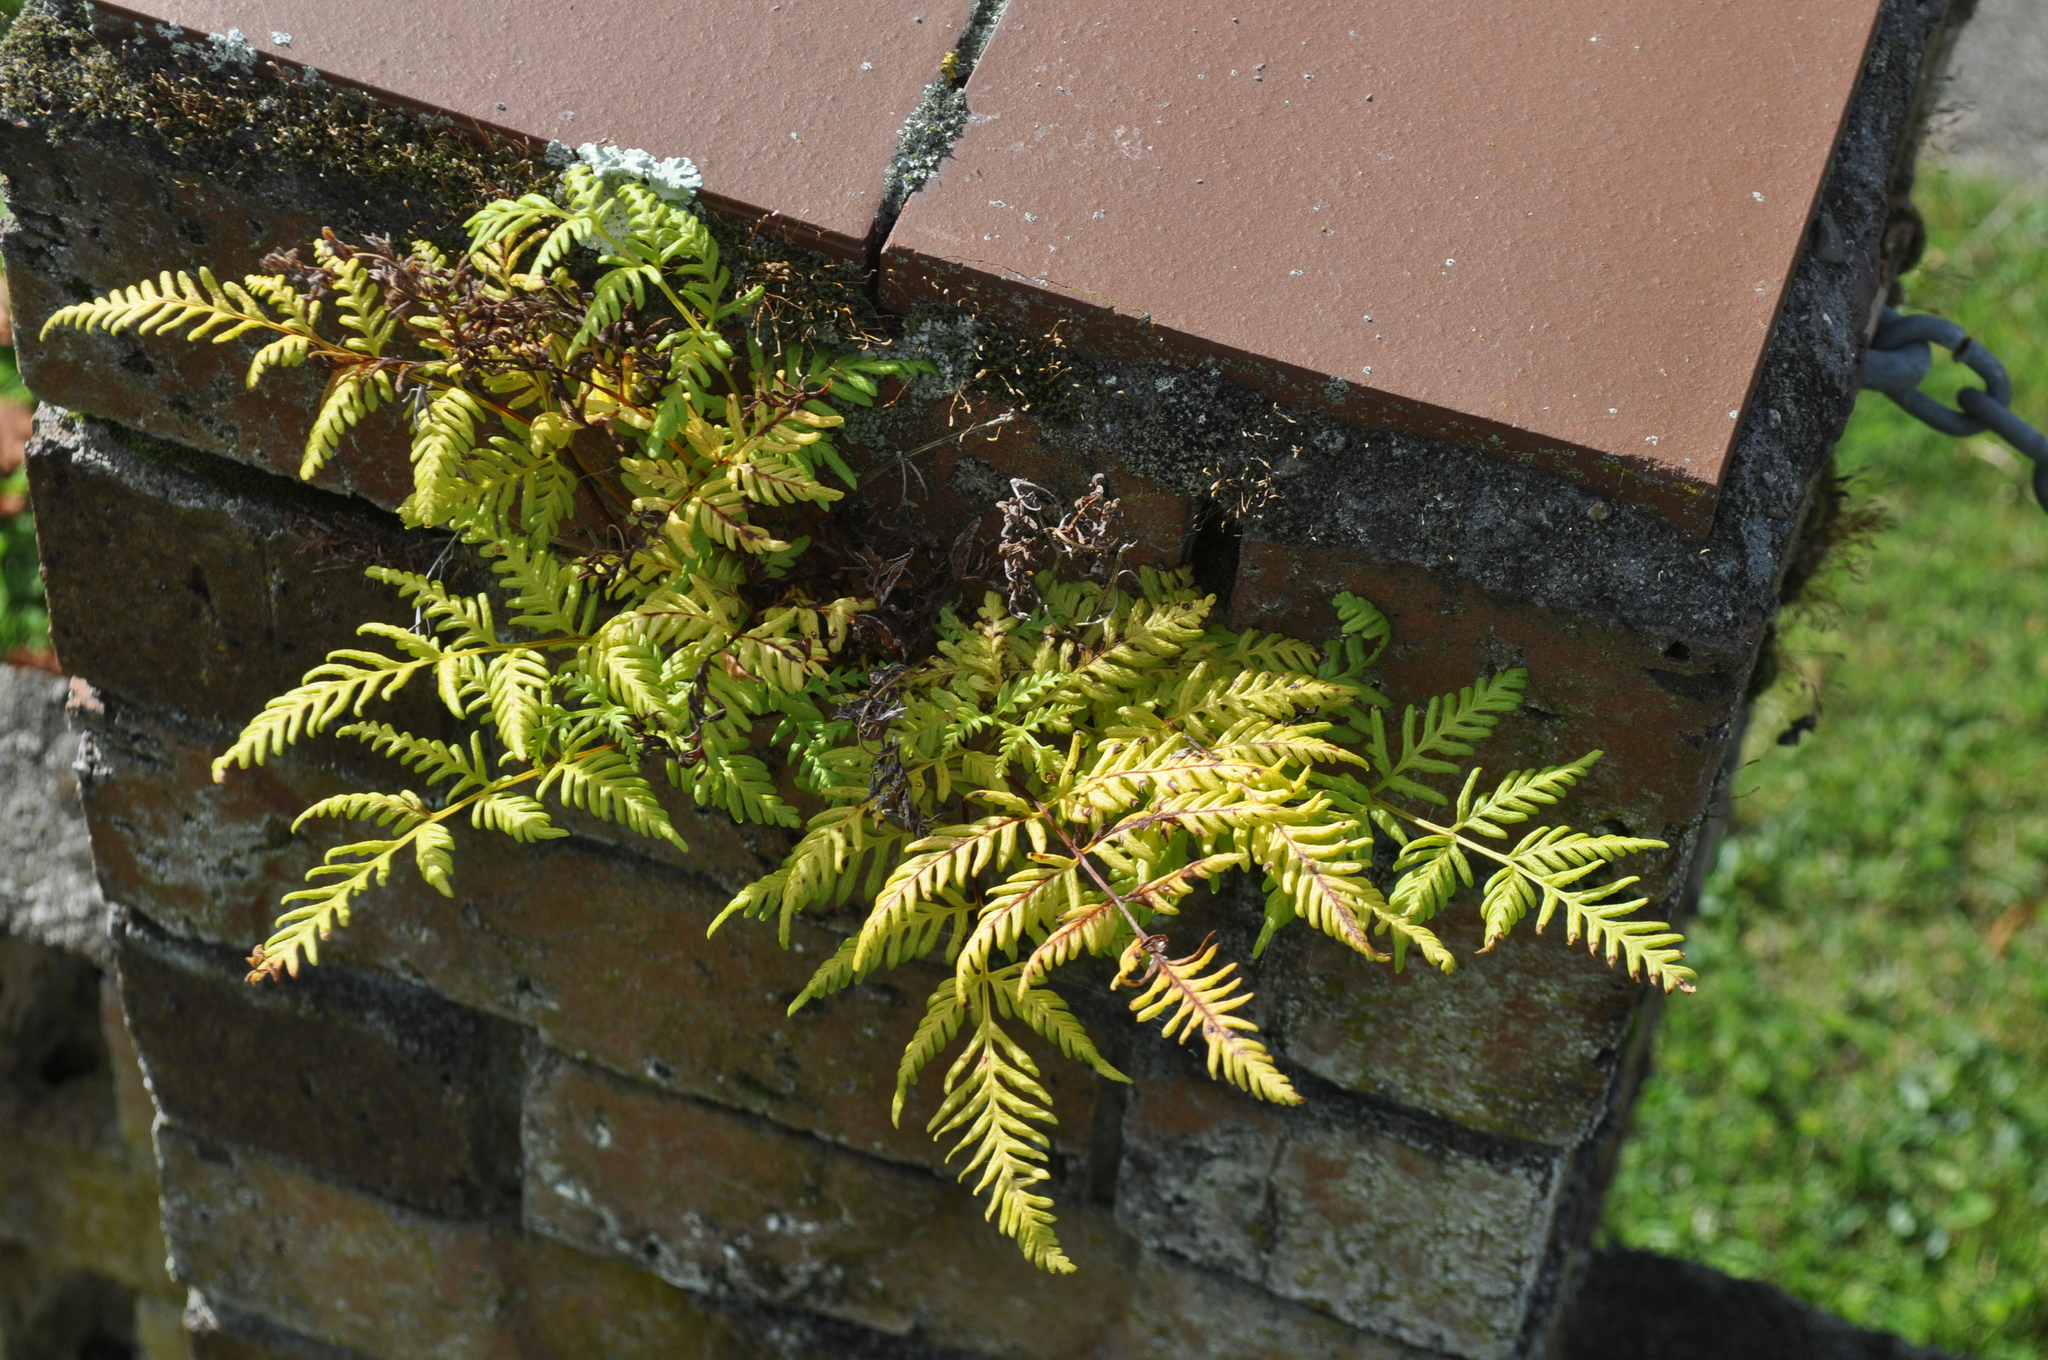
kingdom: Plantae
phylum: Tracheophyta
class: Polypodiopsida
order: Polypodiales
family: Pteridaceae
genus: Pteris
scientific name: Pteris tremula
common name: Australian brake
